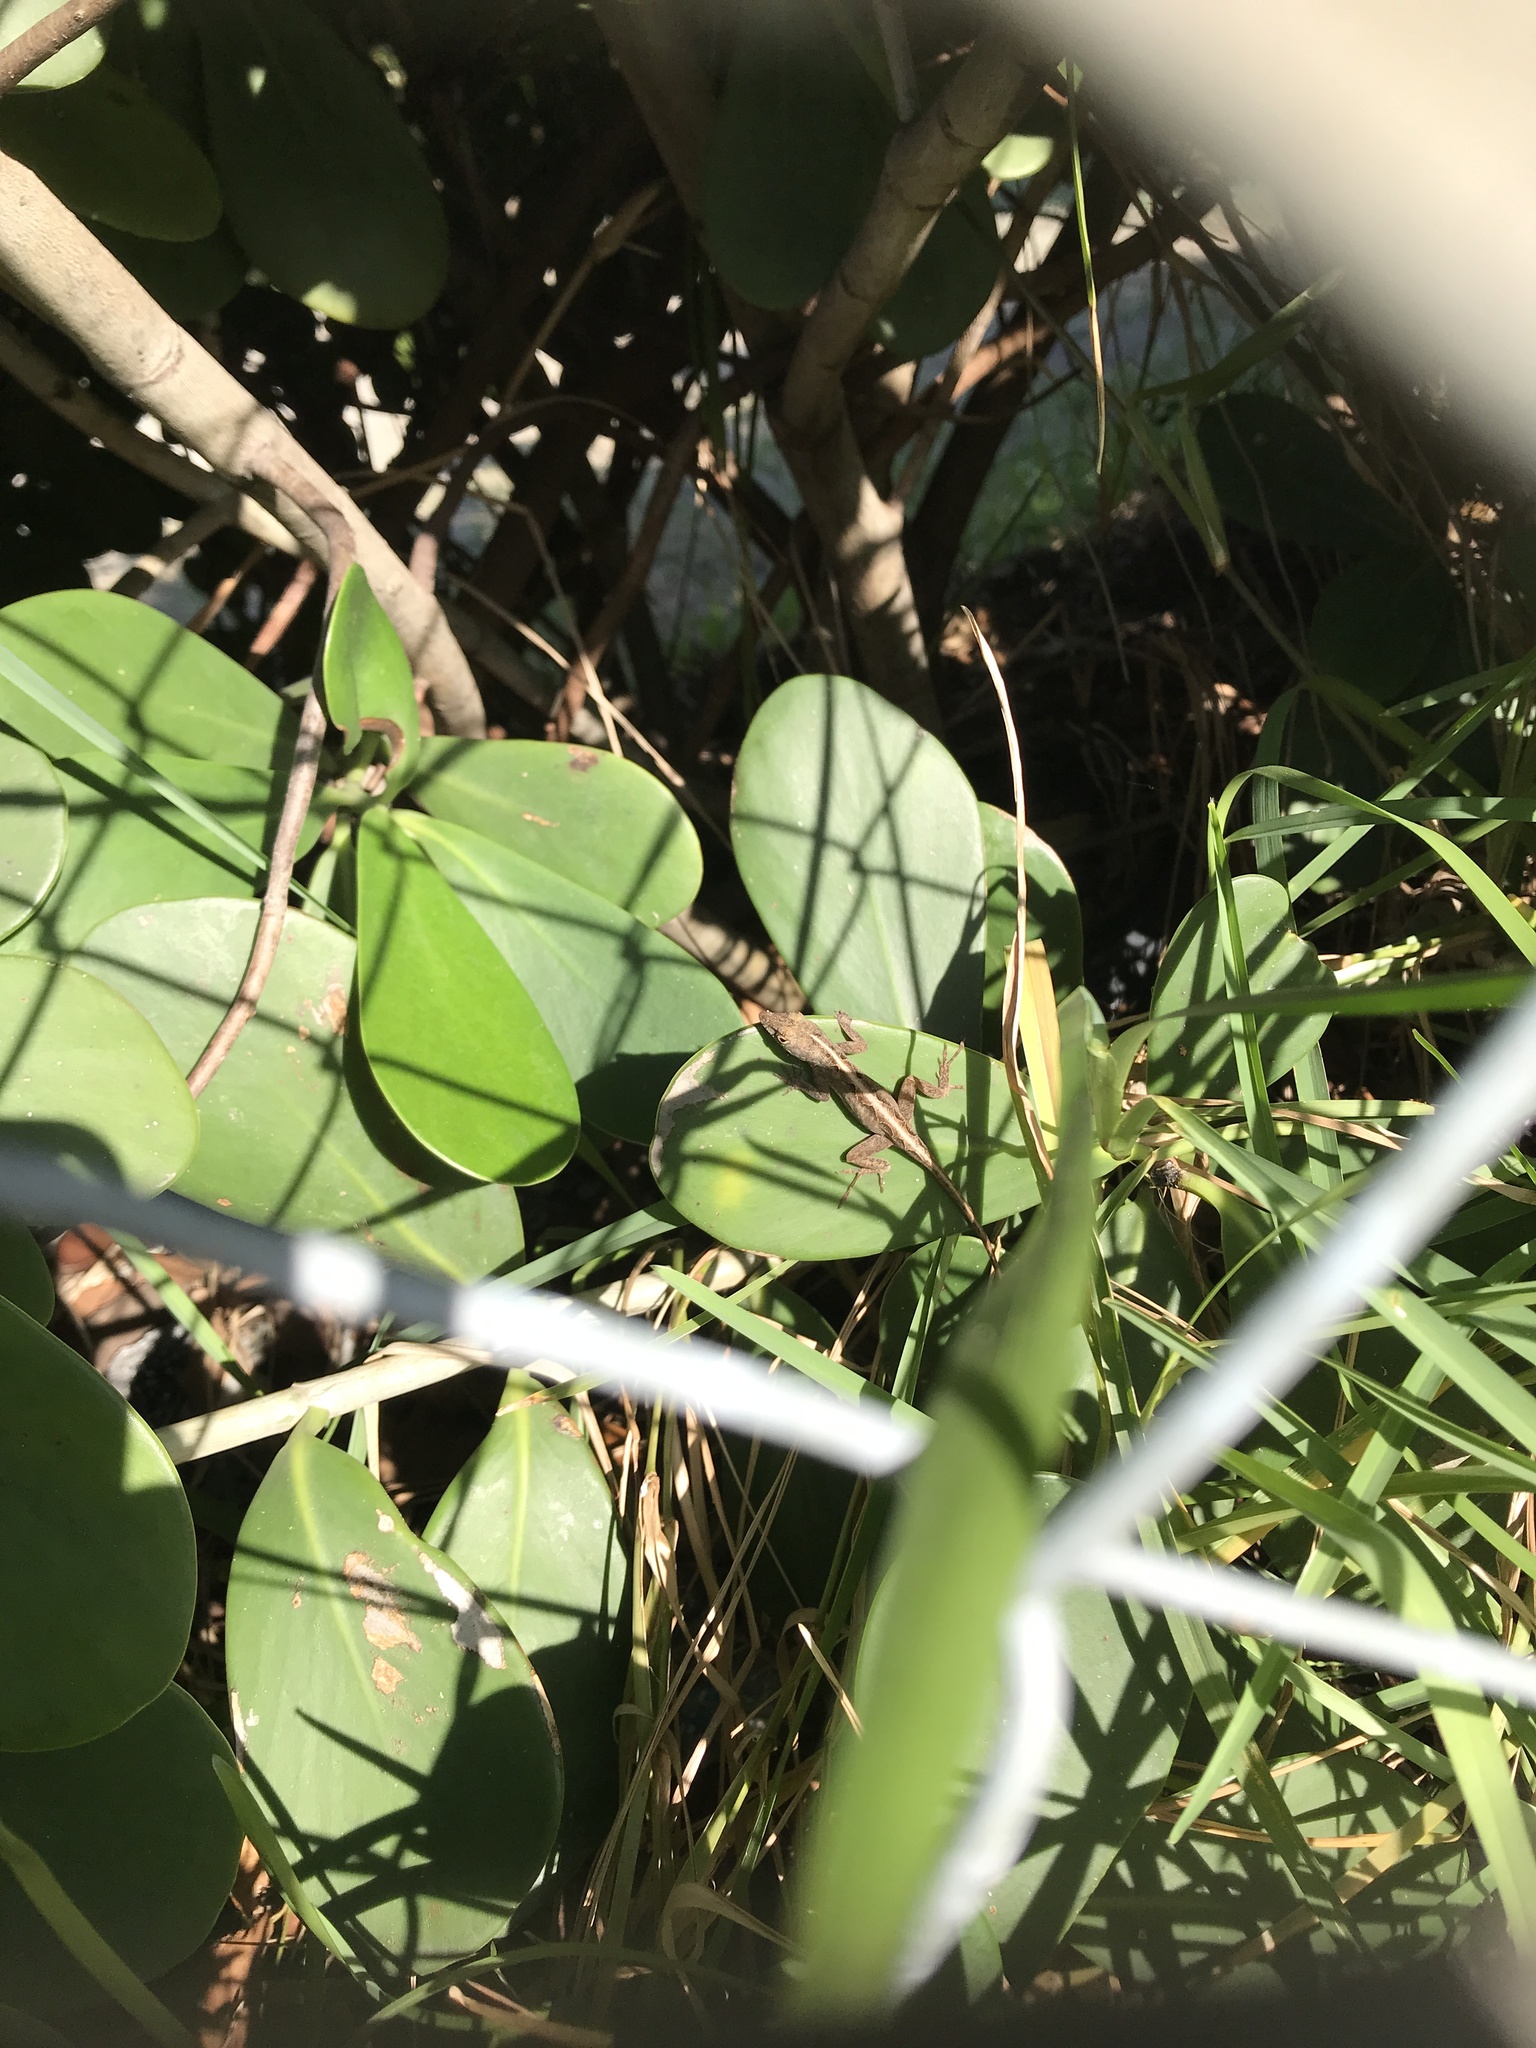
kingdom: Animalia
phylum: Chordata
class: Squamata
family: Dactyloidae
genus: Anolis
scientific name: Anolis sagrei
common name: Brown anole
